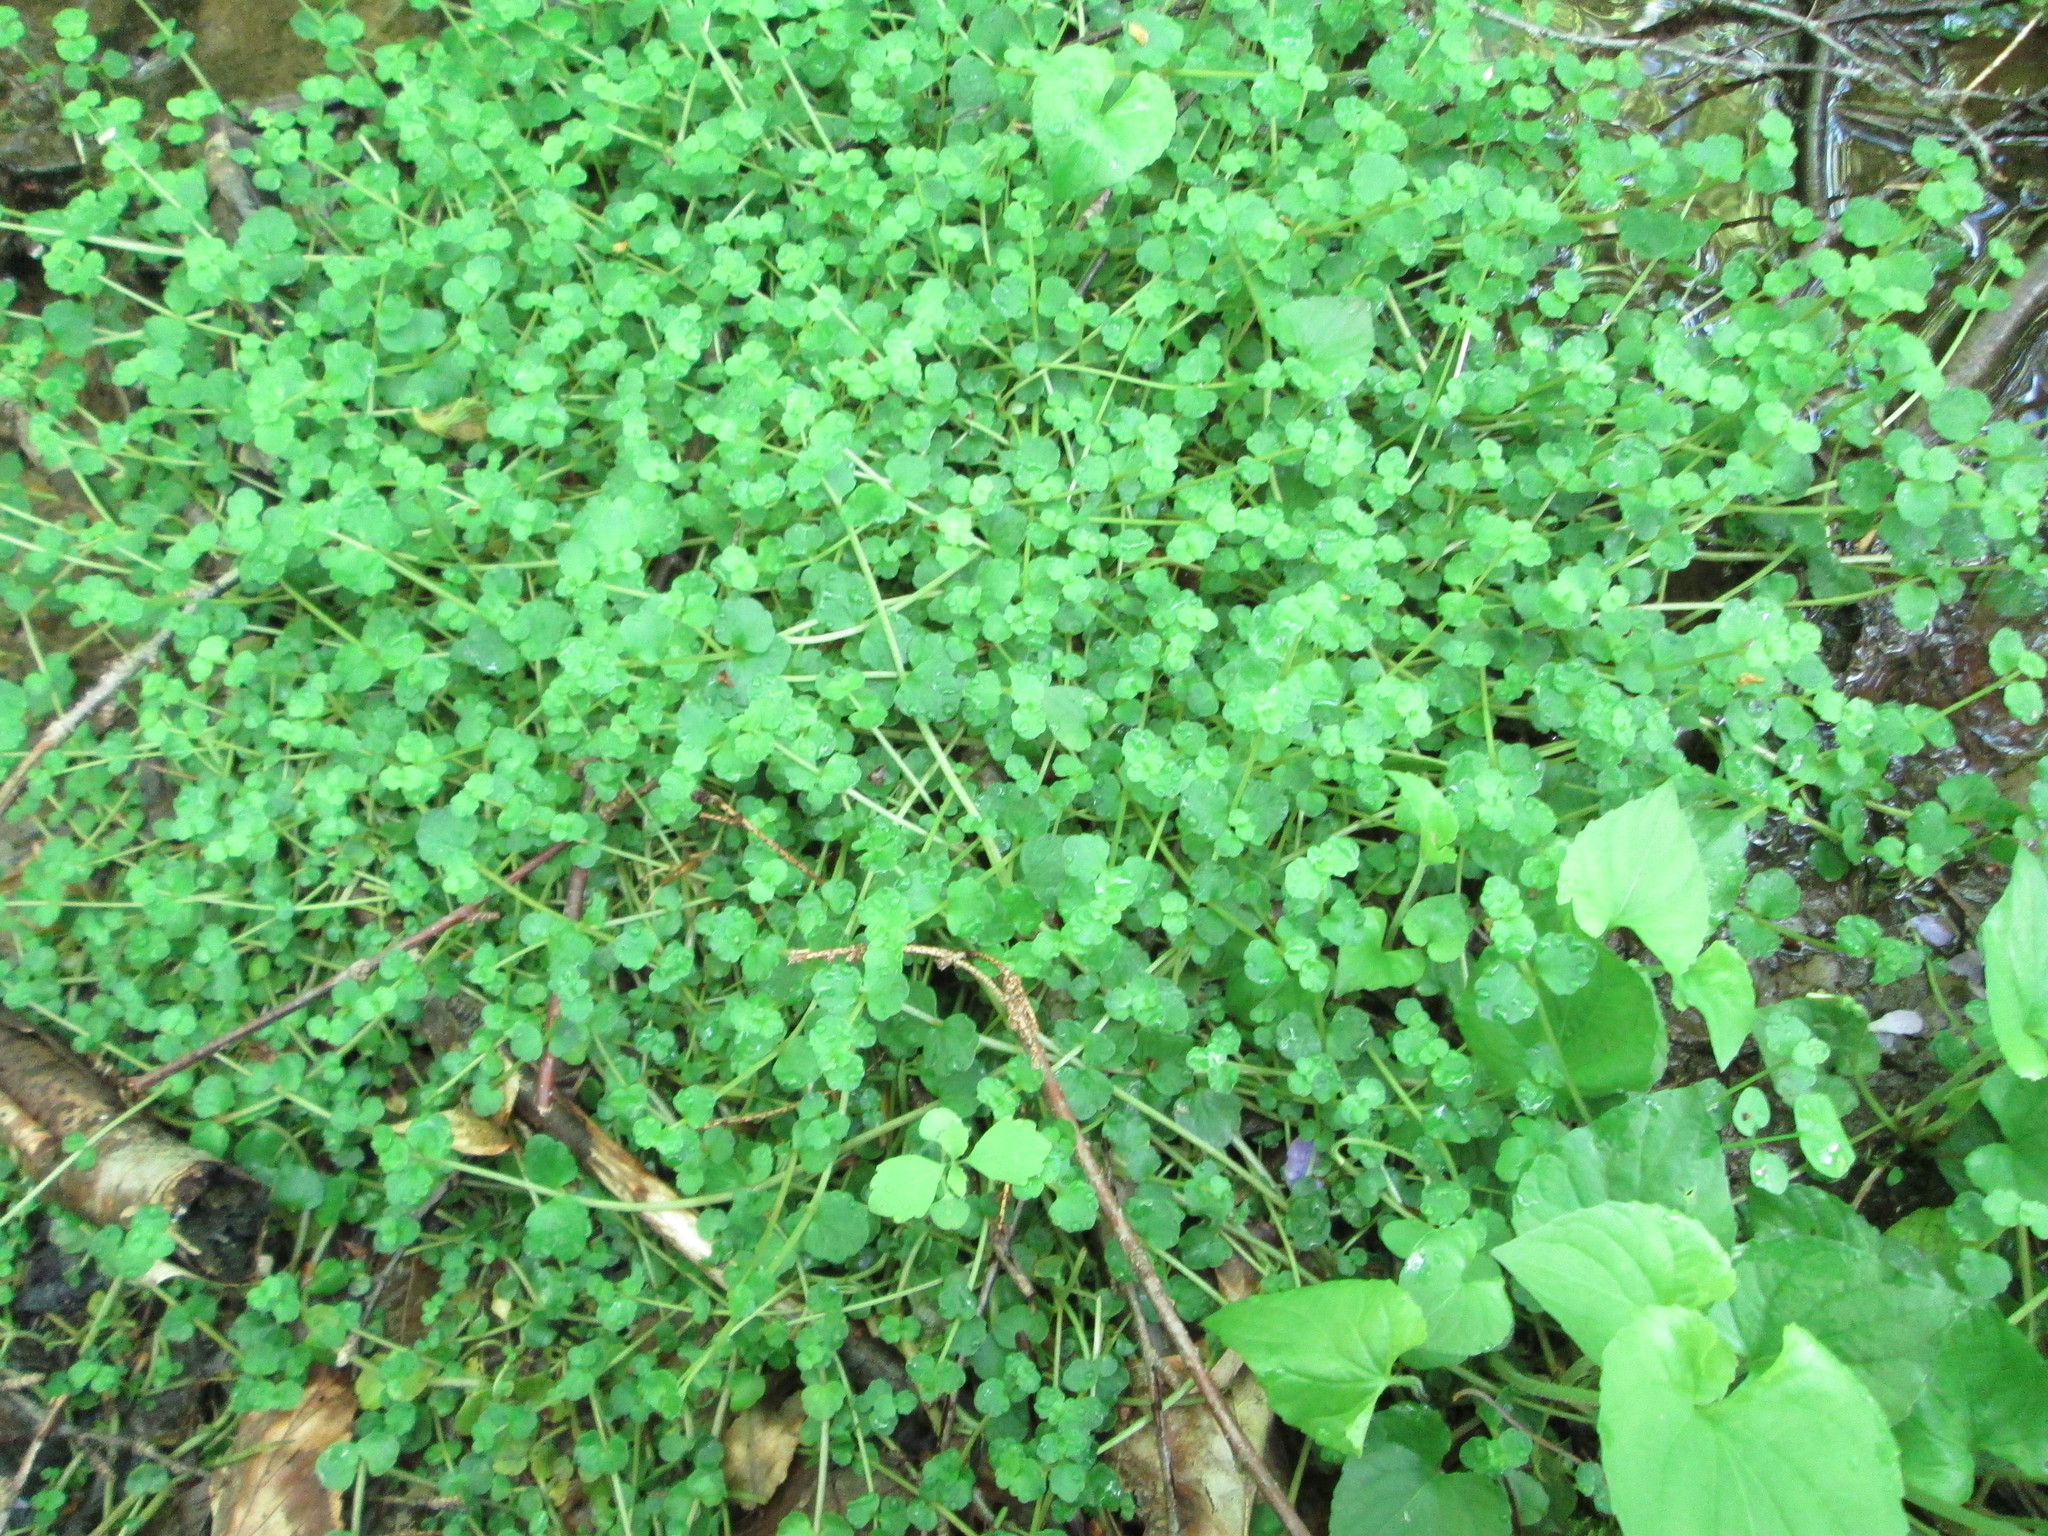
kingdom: Plantae
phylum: Tracheophyta
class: Magnoliopsida
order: Saxifragales
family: Saxifragaceae
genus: Chrysosplenium
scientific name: Chrysosplenium americanum
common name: American golden-saxifrage
